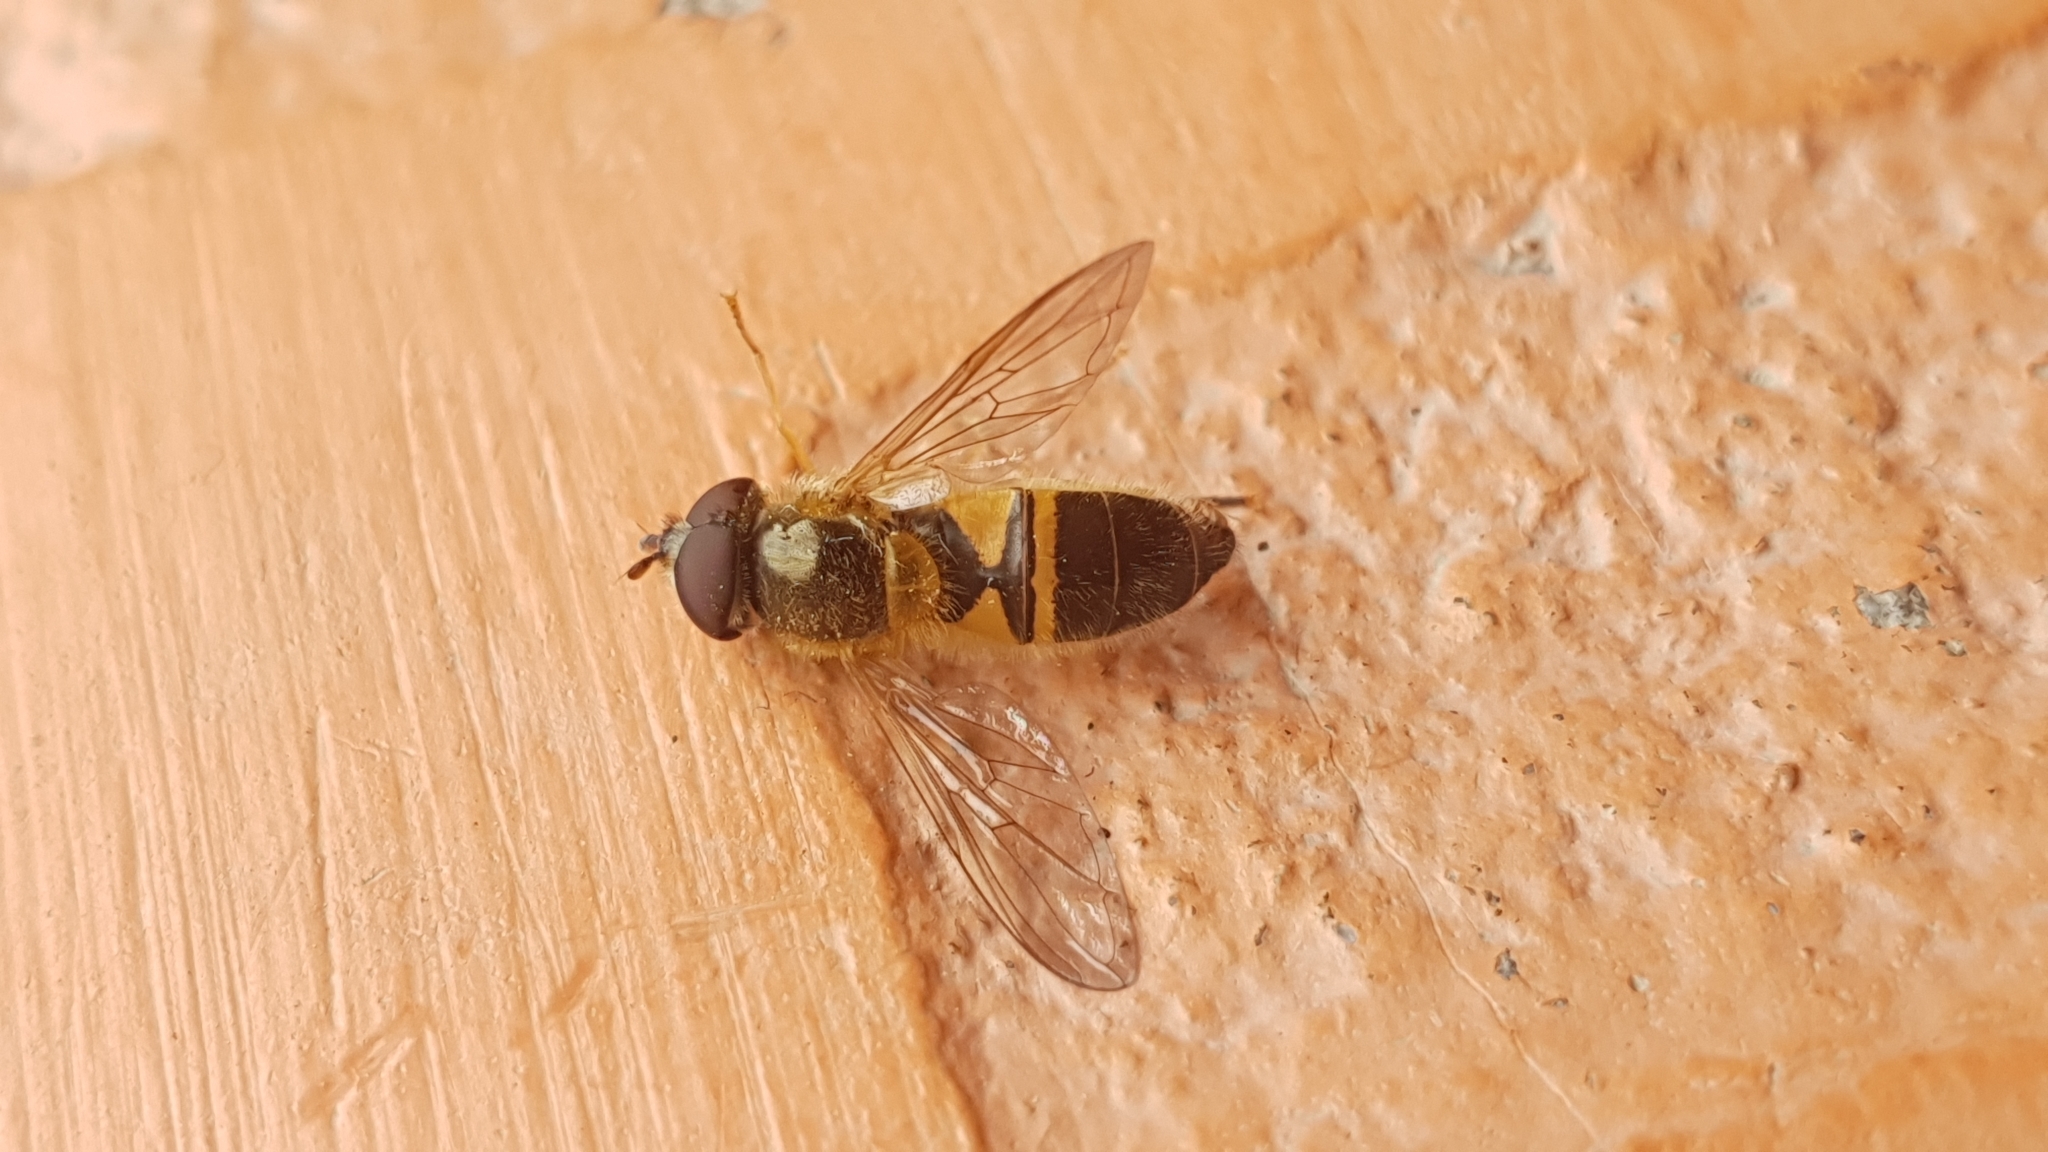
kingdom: Animalia
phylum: Arthropoda
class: Insecta
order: Diptera
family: Syrphidae
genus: Epistrophe
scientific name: Epistrophe eligans
